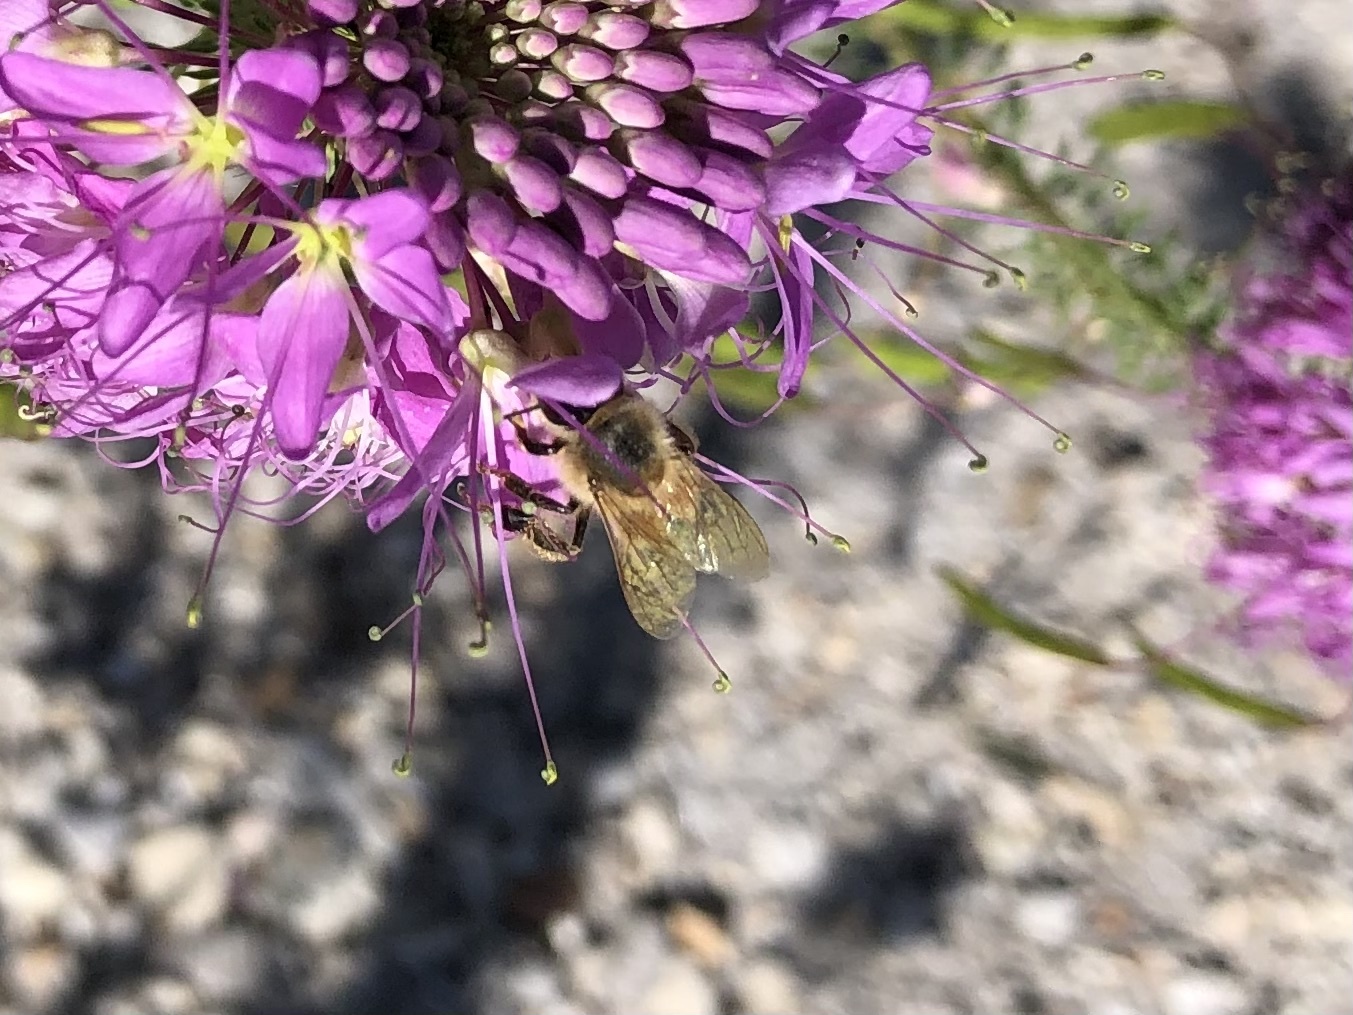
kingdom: Animalia
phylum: Arthropoda
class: Insecta
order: Hymenoptera
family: Apidae
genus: Apis
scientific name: Apis mellifera
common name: Honey bee
